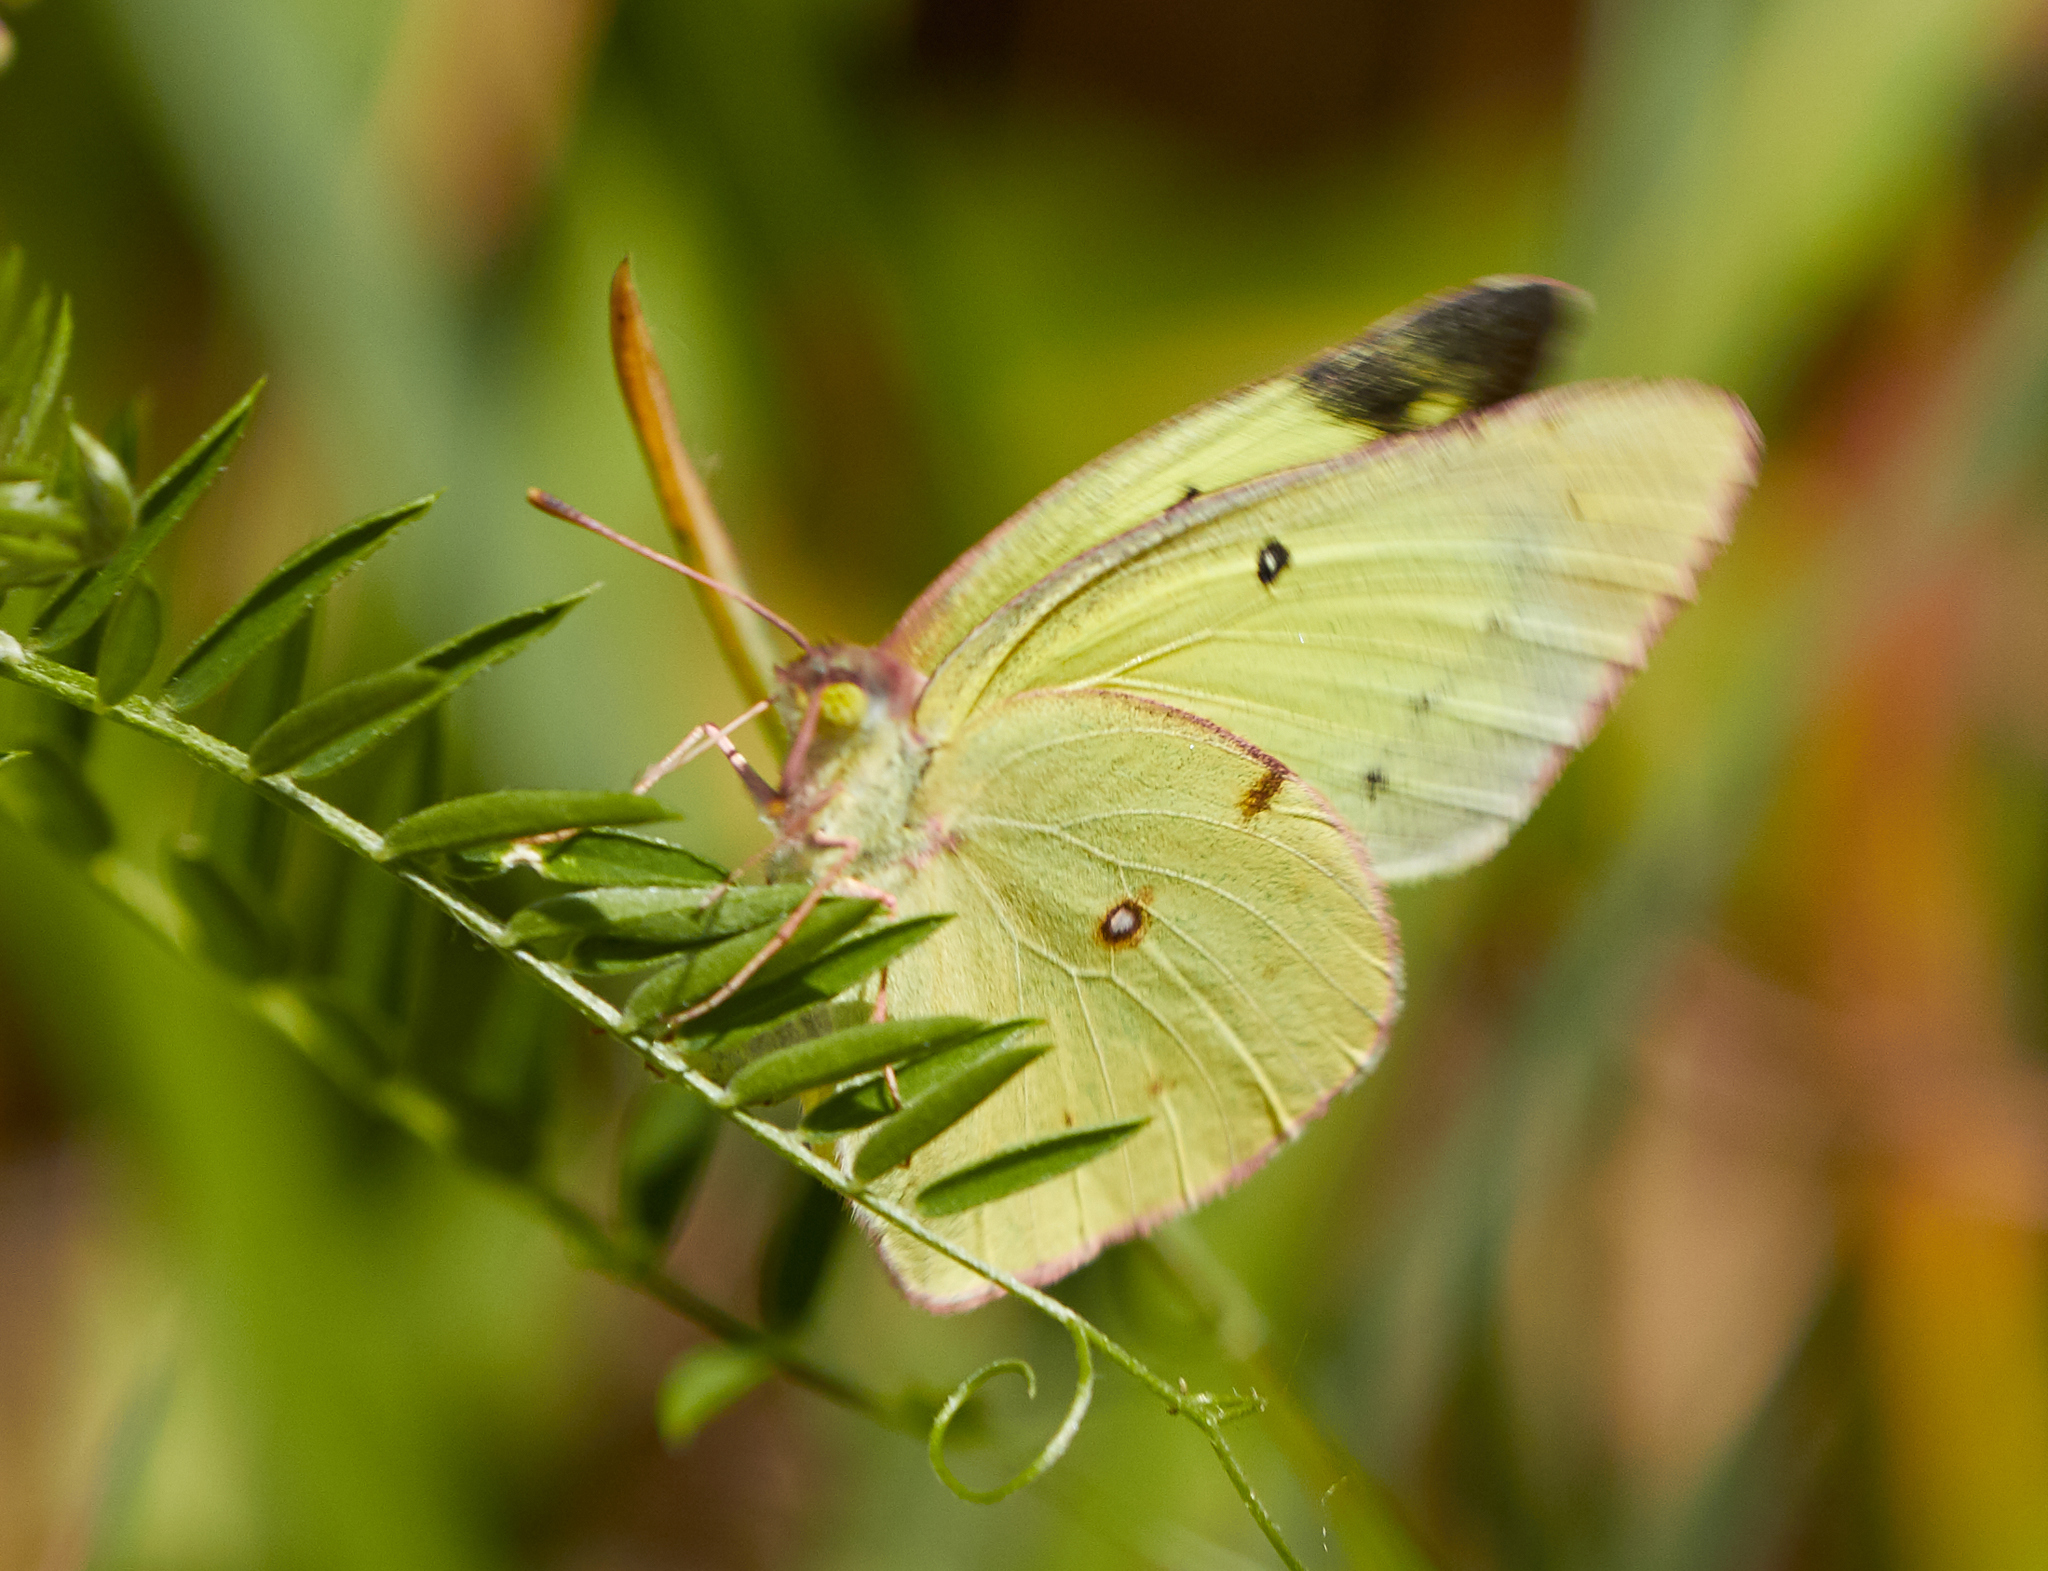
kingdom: Animalia
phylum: Arthropoda
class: Insecta
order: Lepidoptera
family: Pieridae
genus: Colias
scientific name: Colias philodice
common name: Clouded sulphur
